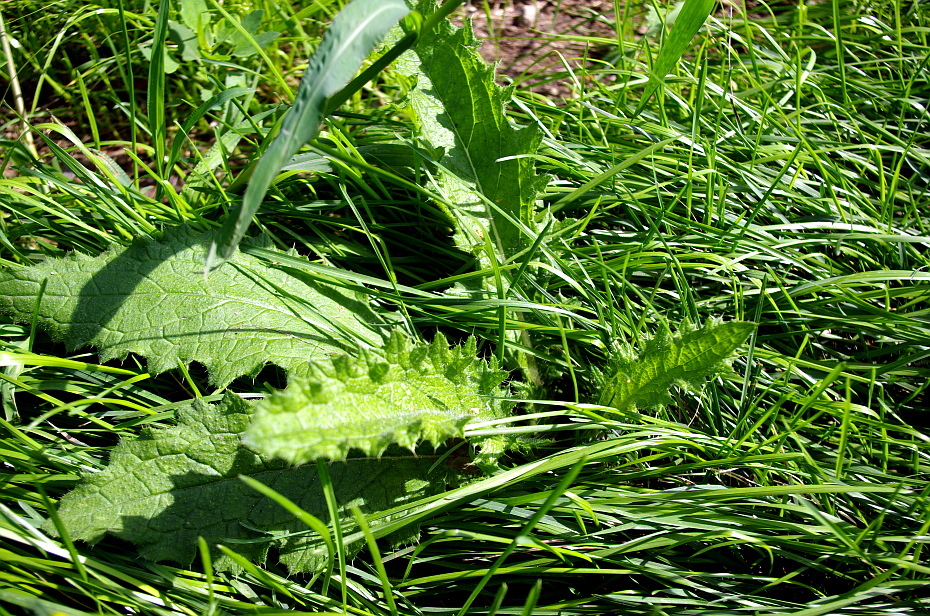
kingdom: Plantae
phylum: Tracheophyta
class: Magnoliopsida
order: Asterales
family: Asteraceae
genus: Cirsium
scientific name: Cirsium vulgare
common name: Bull thistle
